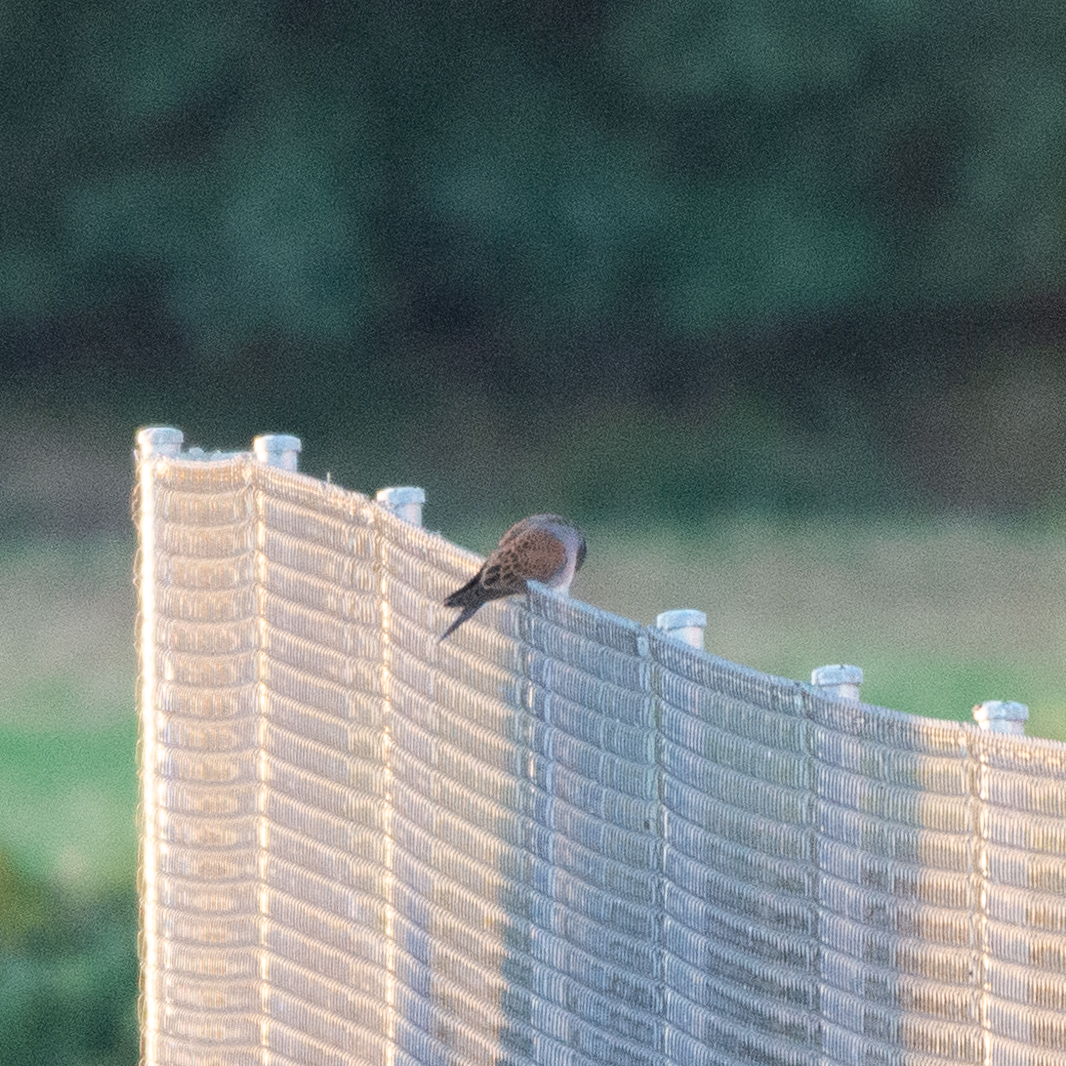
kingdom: Animalia
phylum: Chordata
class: Aves
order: Columbiformes
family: Columbidae
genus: Streptopelia
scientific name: Streptopelia turtur
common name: European turtle dove
